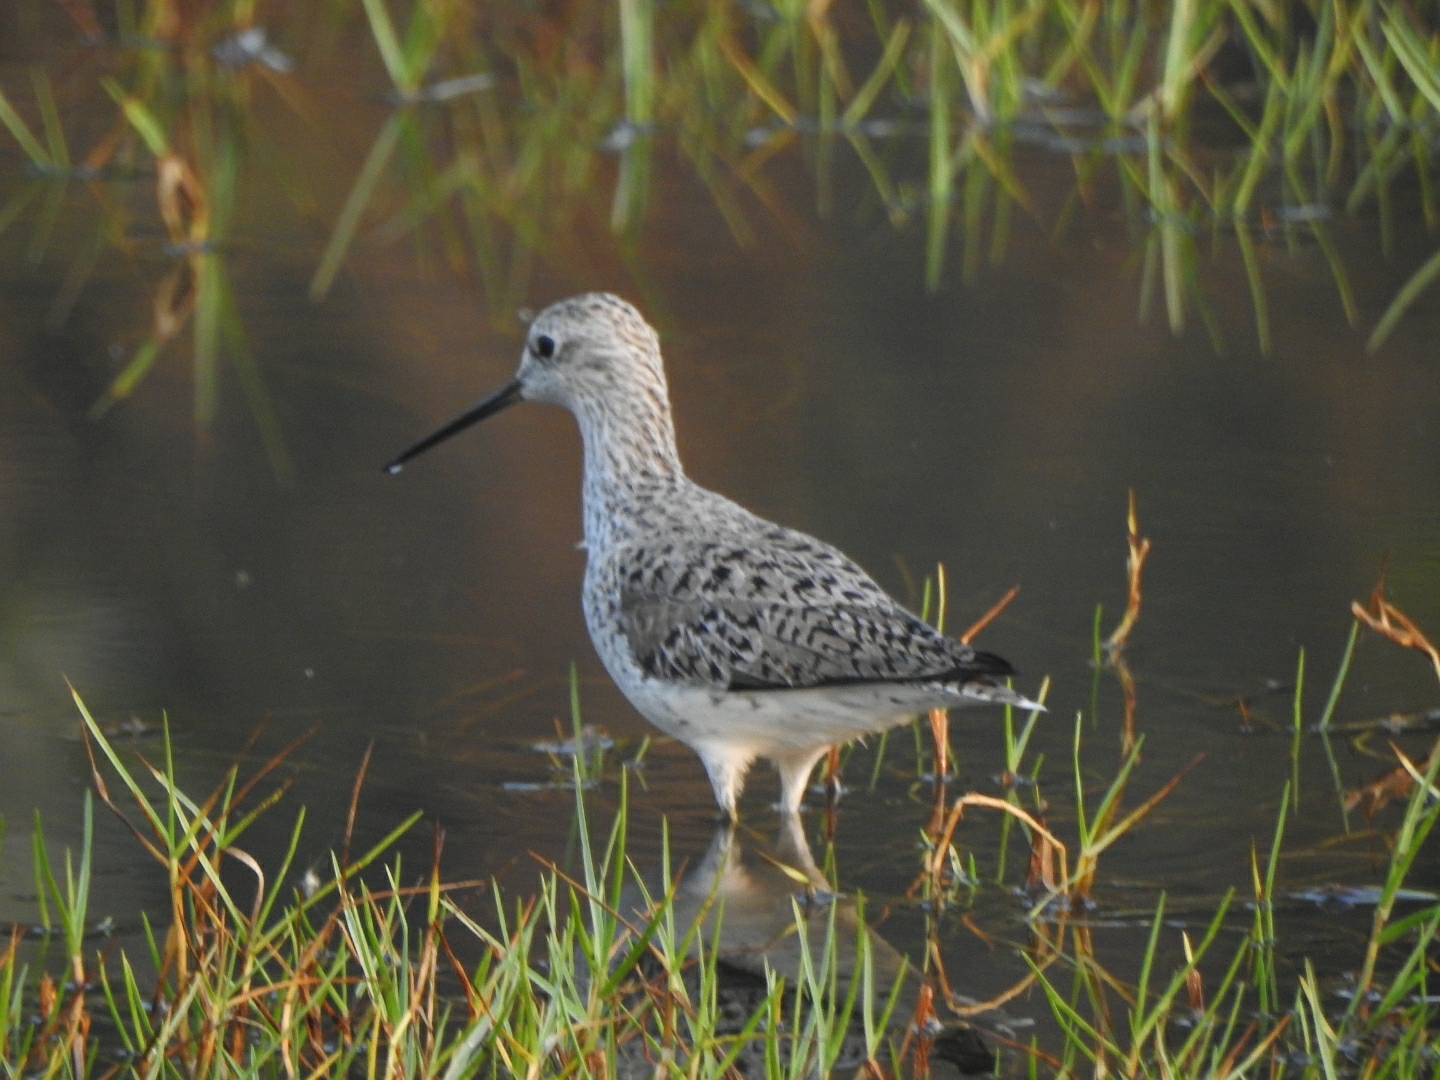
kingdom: Animalia
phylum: Chordata
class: Aves
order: Charadriiformes
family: Scolopacidae
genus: Tringa
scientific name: Tringa stagnatilis
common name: Marsh sandpiper
